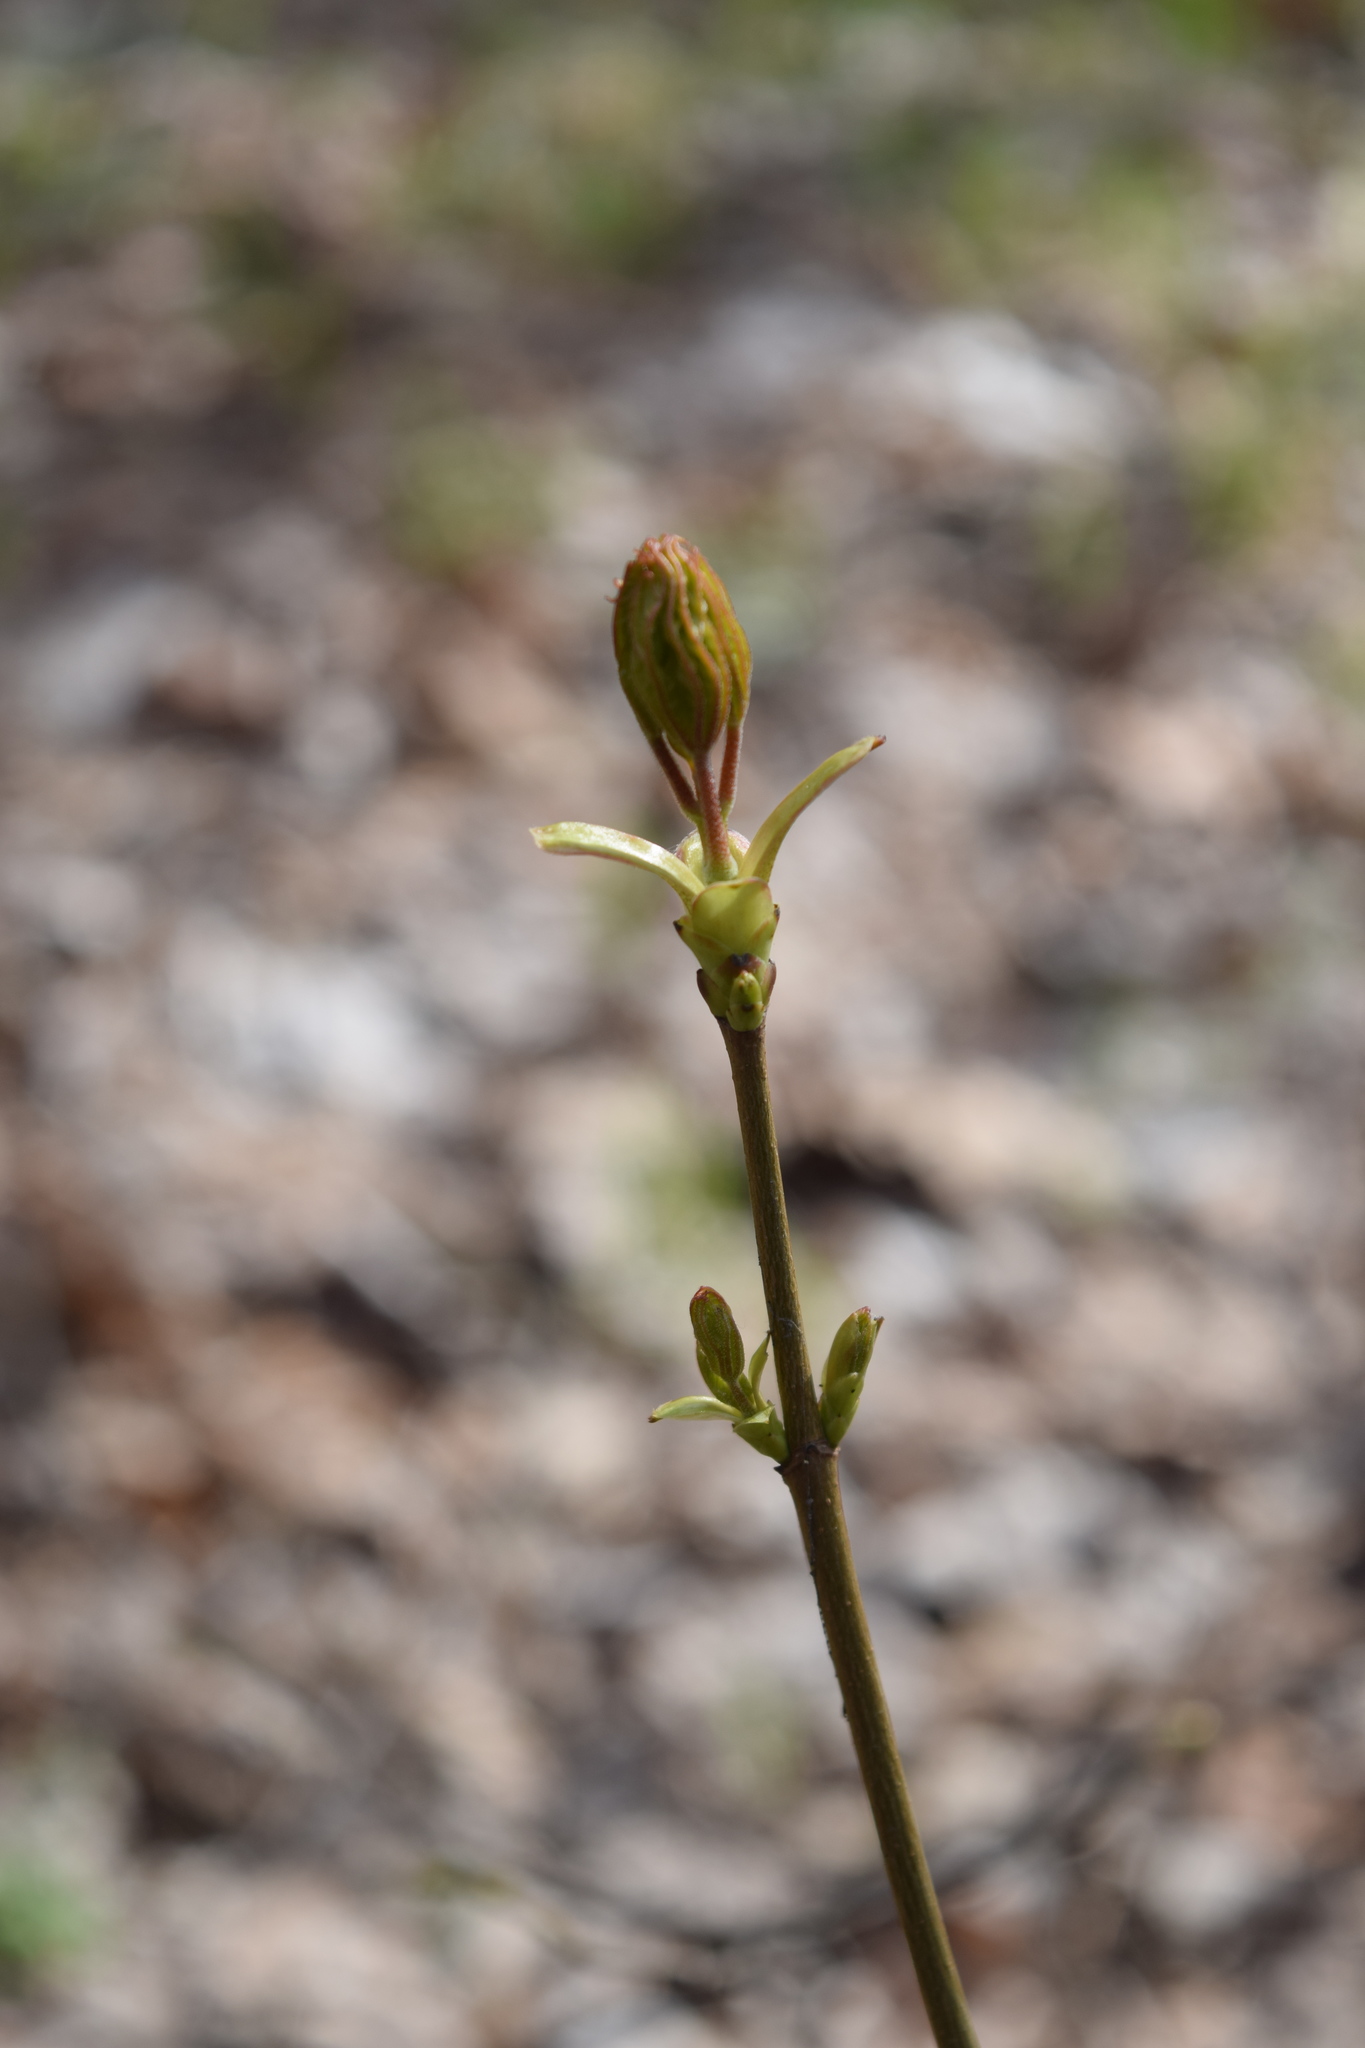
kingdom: Plantae
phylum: Tracheophyta
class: Magnoliopsida
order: Sapindales
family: Sapindaceae
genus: Acer
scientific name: Acer platanoides
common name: Norway maple
